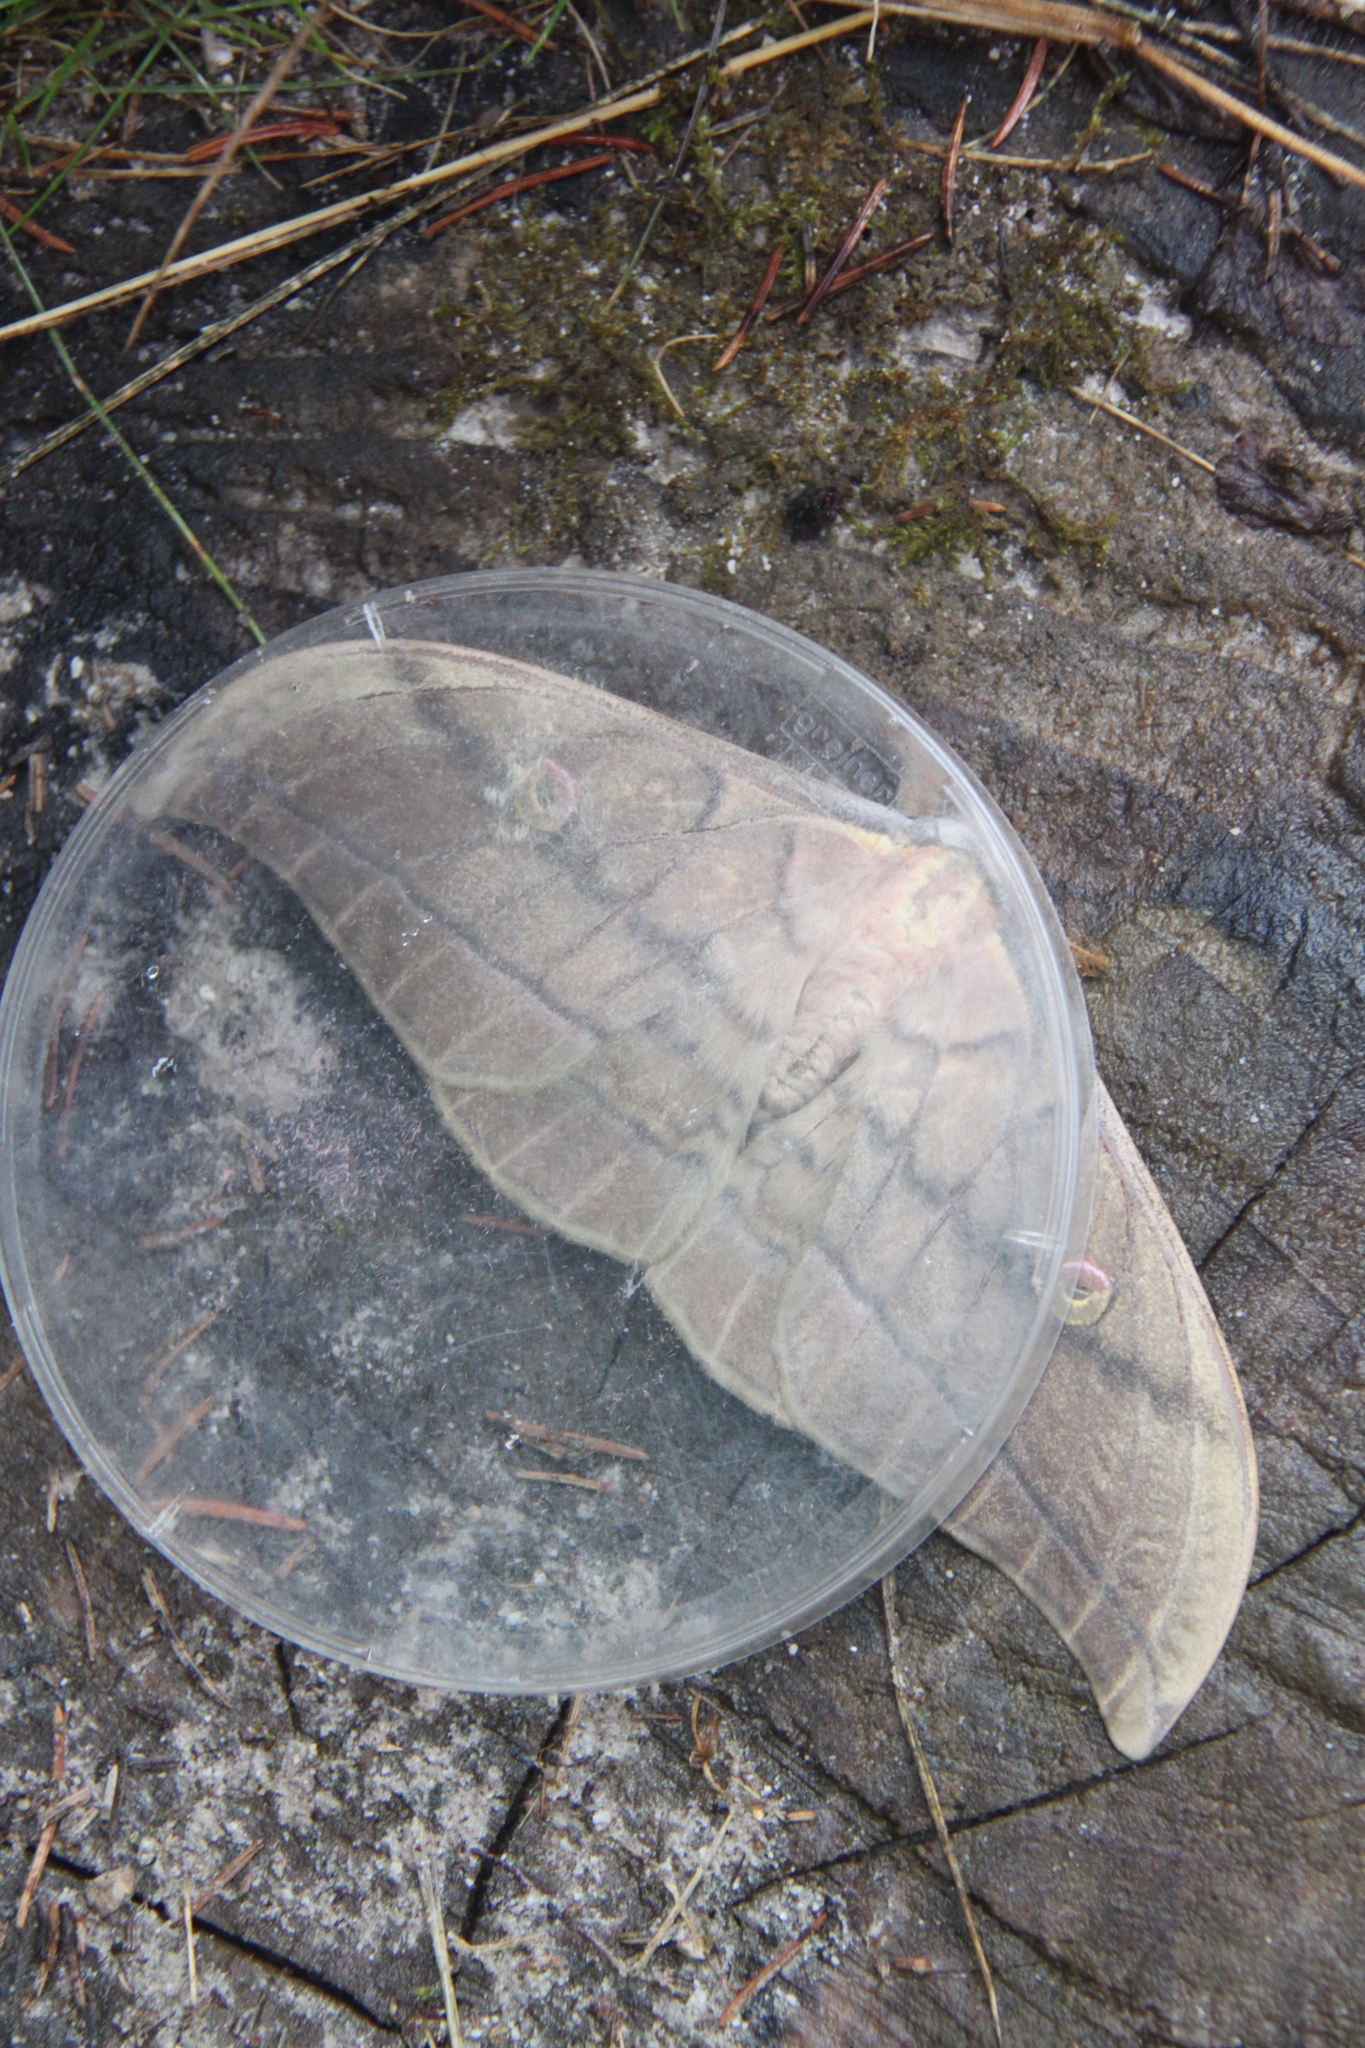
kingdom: Animalia
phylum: Arthropoda
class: Insecta
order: Lepidoptera
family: Saturniidae
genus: Antheraea
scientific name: Antheraea yamamai
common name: Japanese oak silk moth
